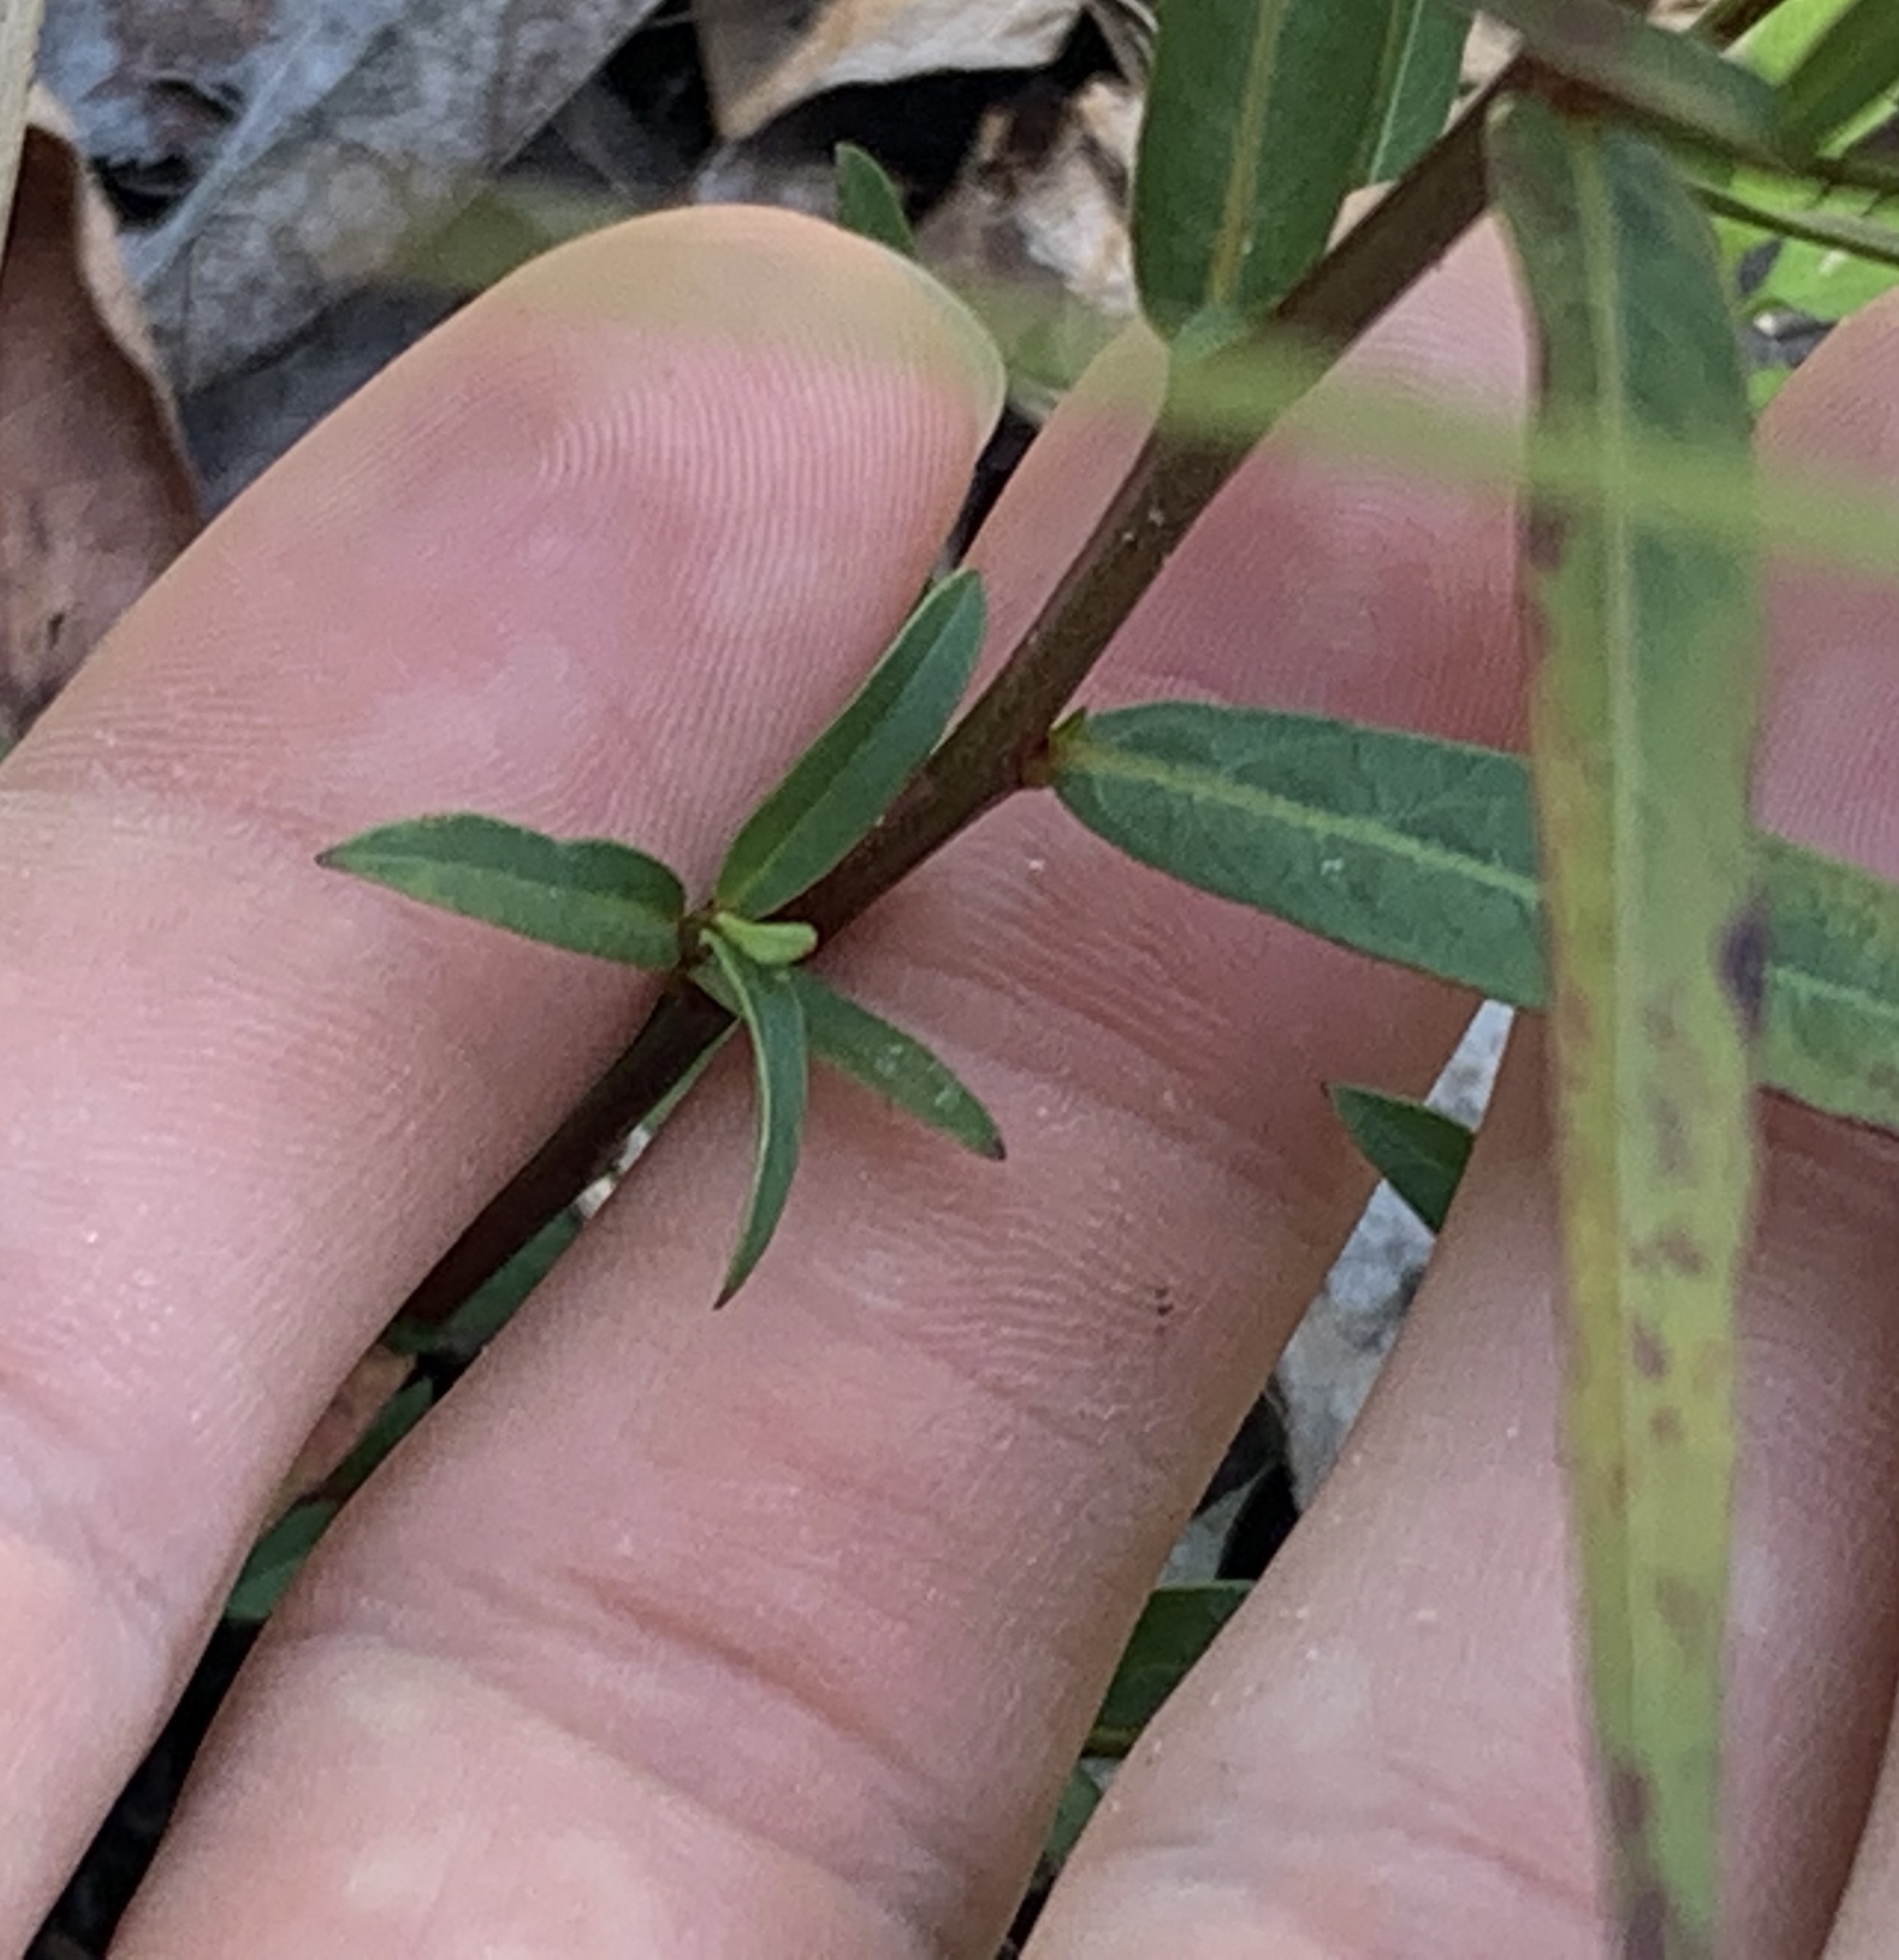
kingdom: Plantae
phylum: Tracheophyta
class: Magnoliopsida
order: Myrtales
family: Onagraceae
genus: Ludwigia
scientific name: Ludwigia suffruticosa
